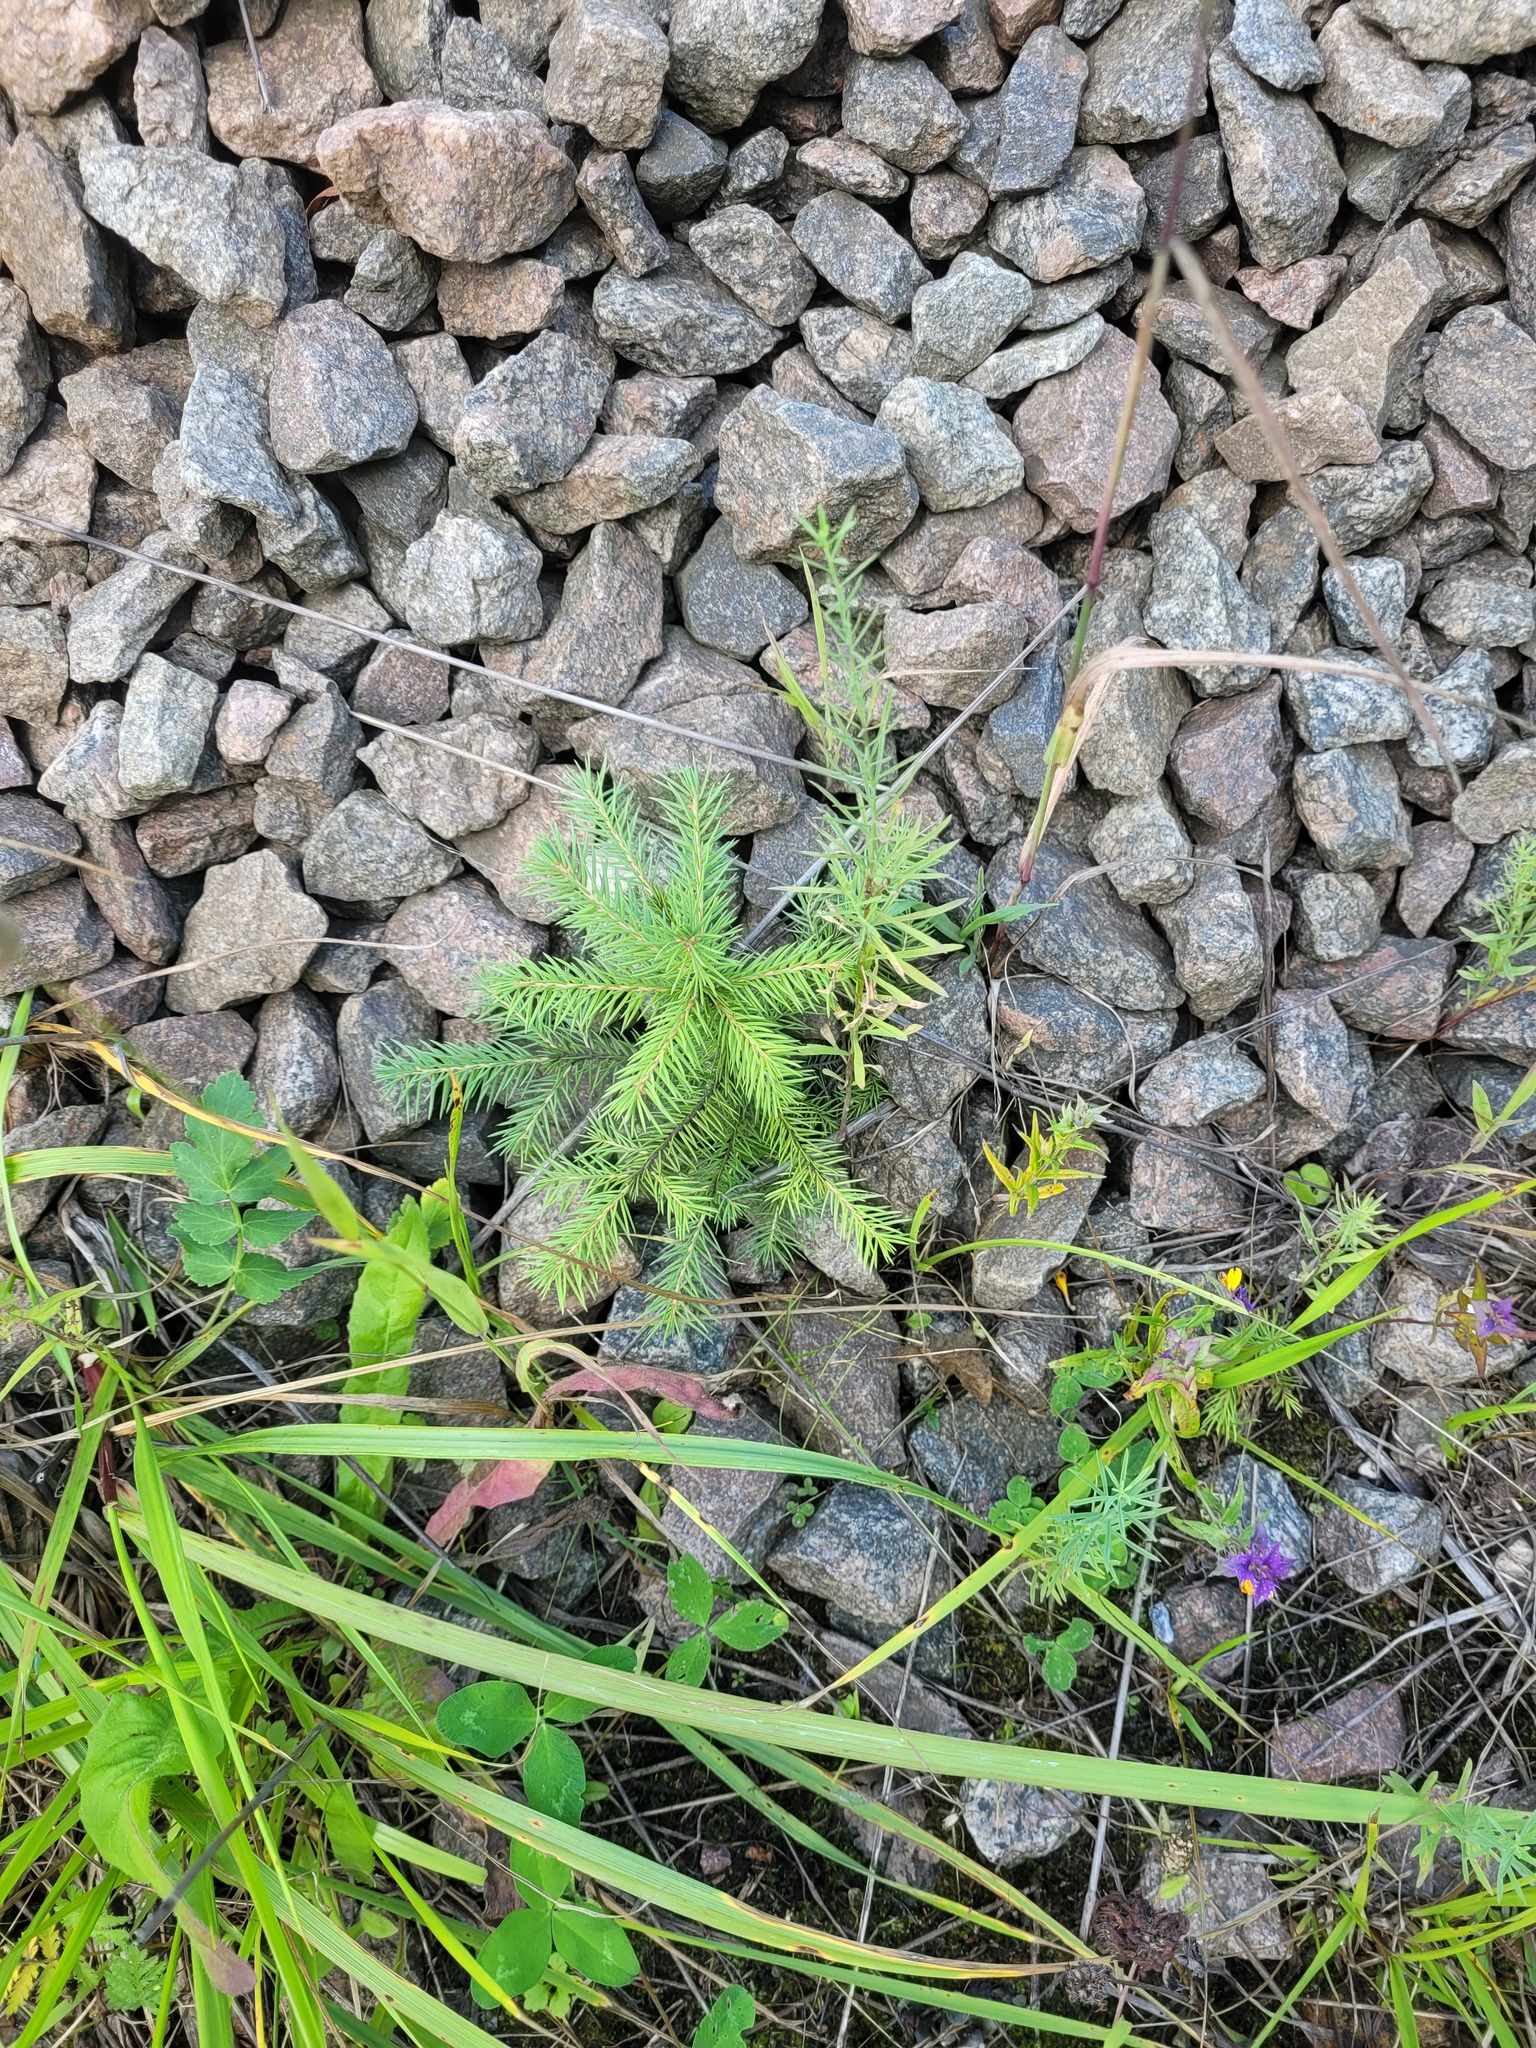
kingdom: Plantae
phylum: Tracheophyta
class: Pinopsida
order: Pinales
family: Pinaceae
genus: Picea
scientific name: Picea abies
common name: Norway spruce
